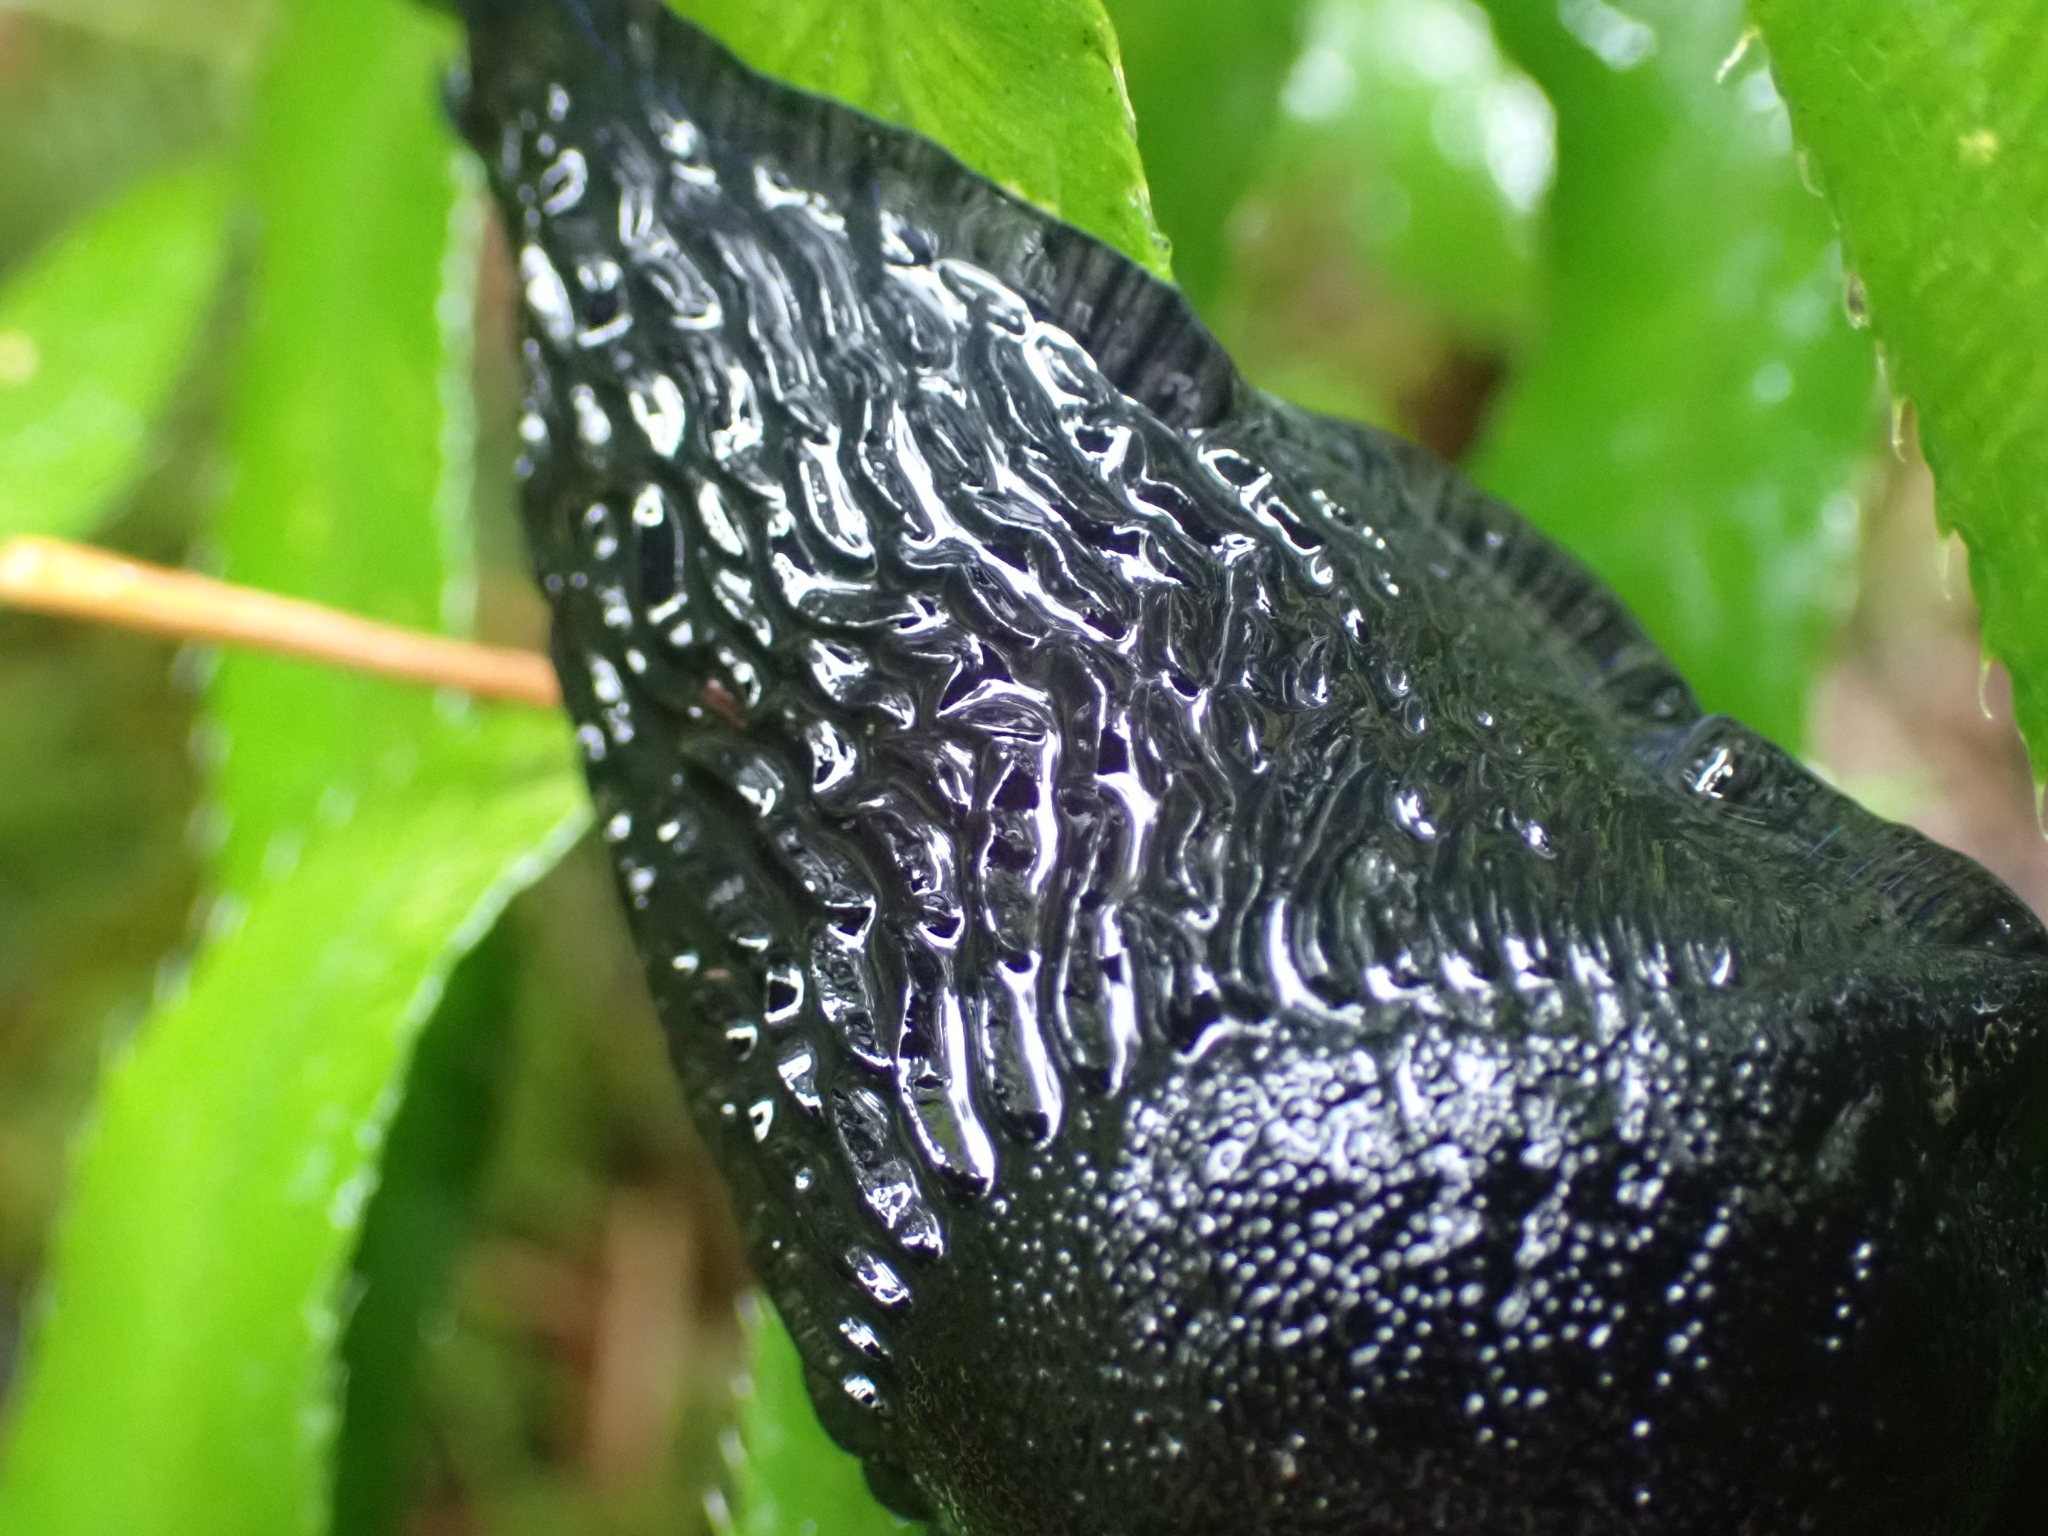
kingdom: Animalia
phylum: Mollusca
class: Gastropoda
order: Stylommatophora
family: Arionidae
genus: Arion
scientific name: Arion
